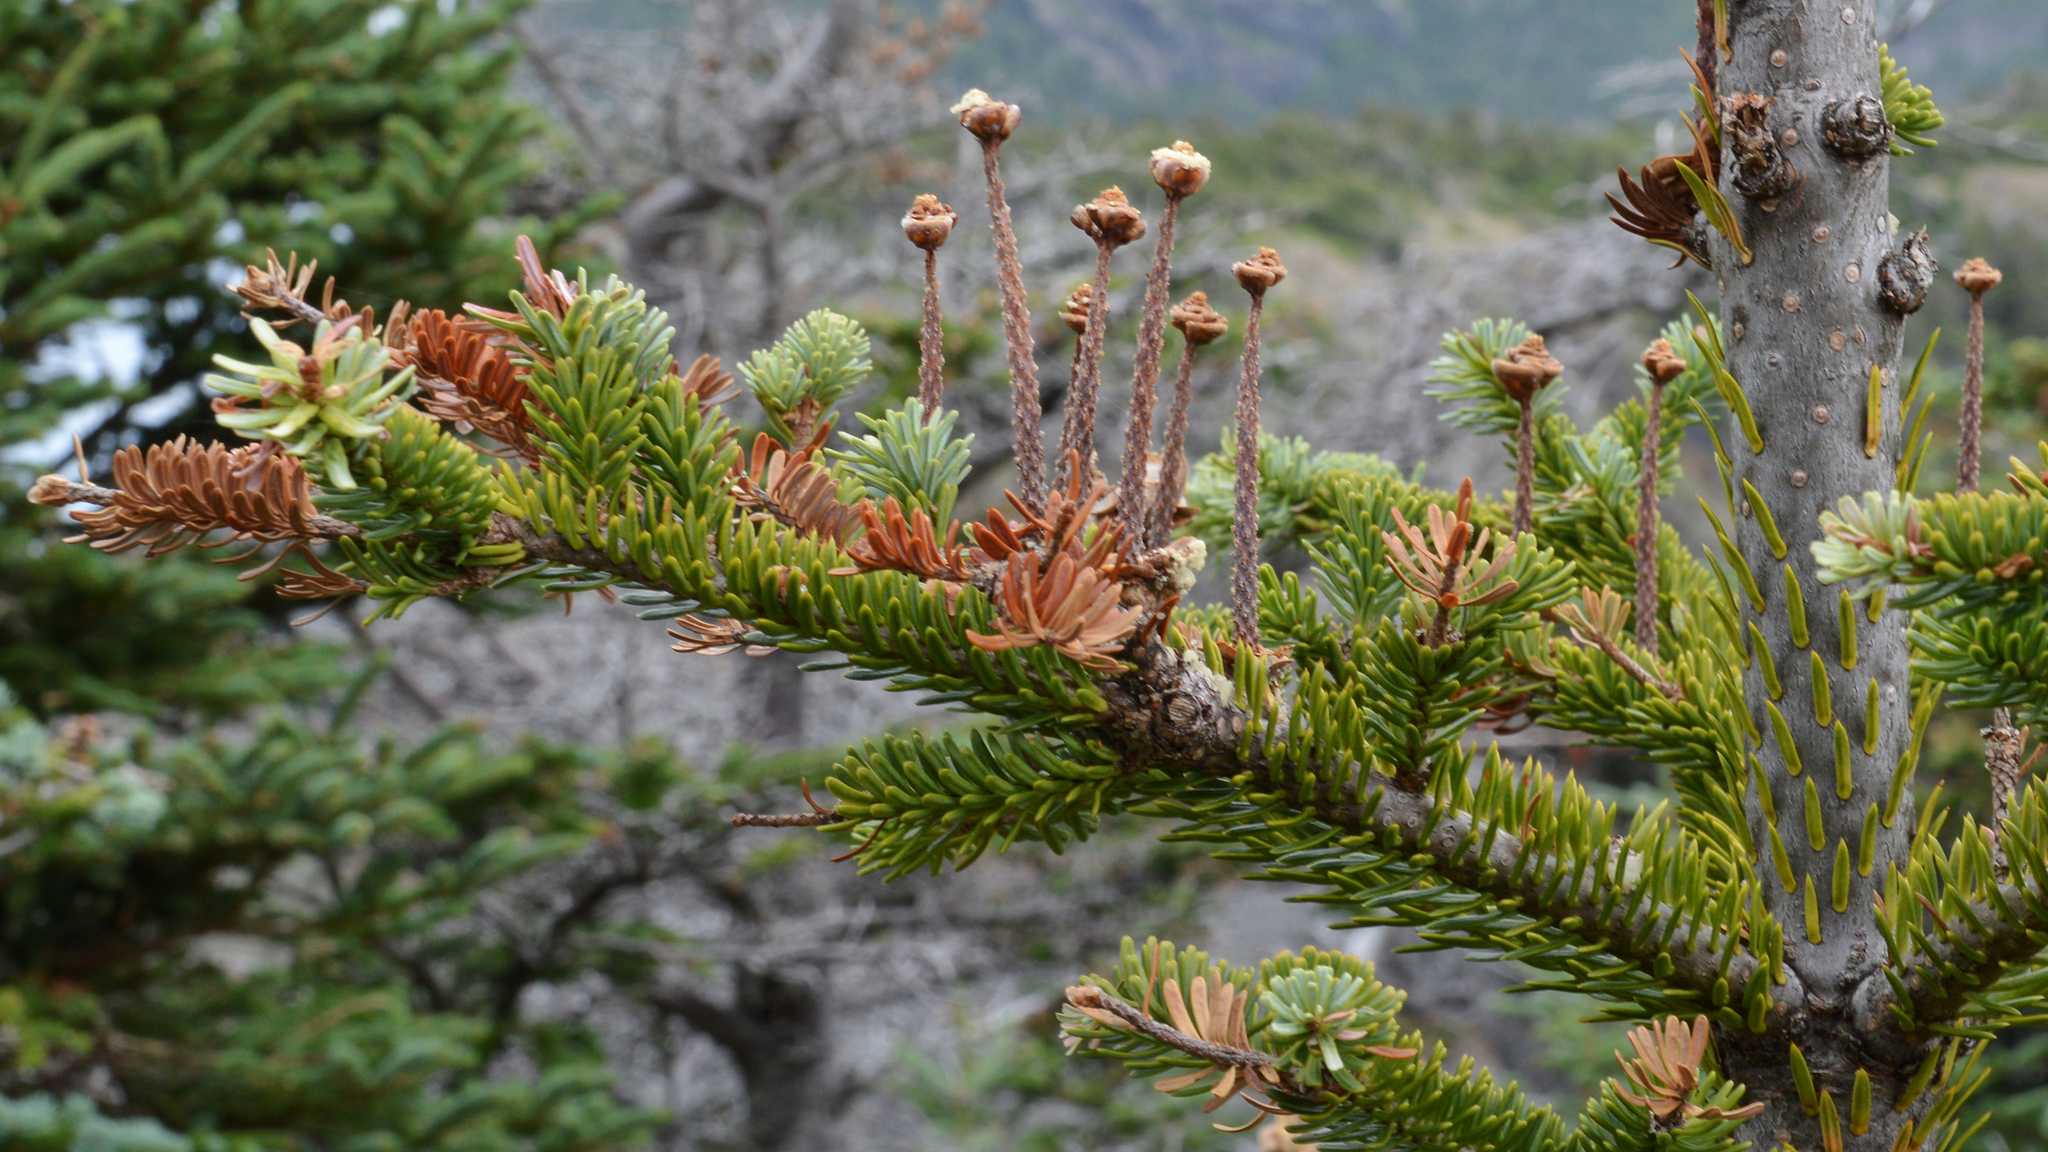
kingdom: Plantae
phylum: Tracheophyta
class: Pinopsida
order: Pinales
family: Pinaceae
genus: Abies
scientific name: Abies balsamea
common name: Balsam fir
